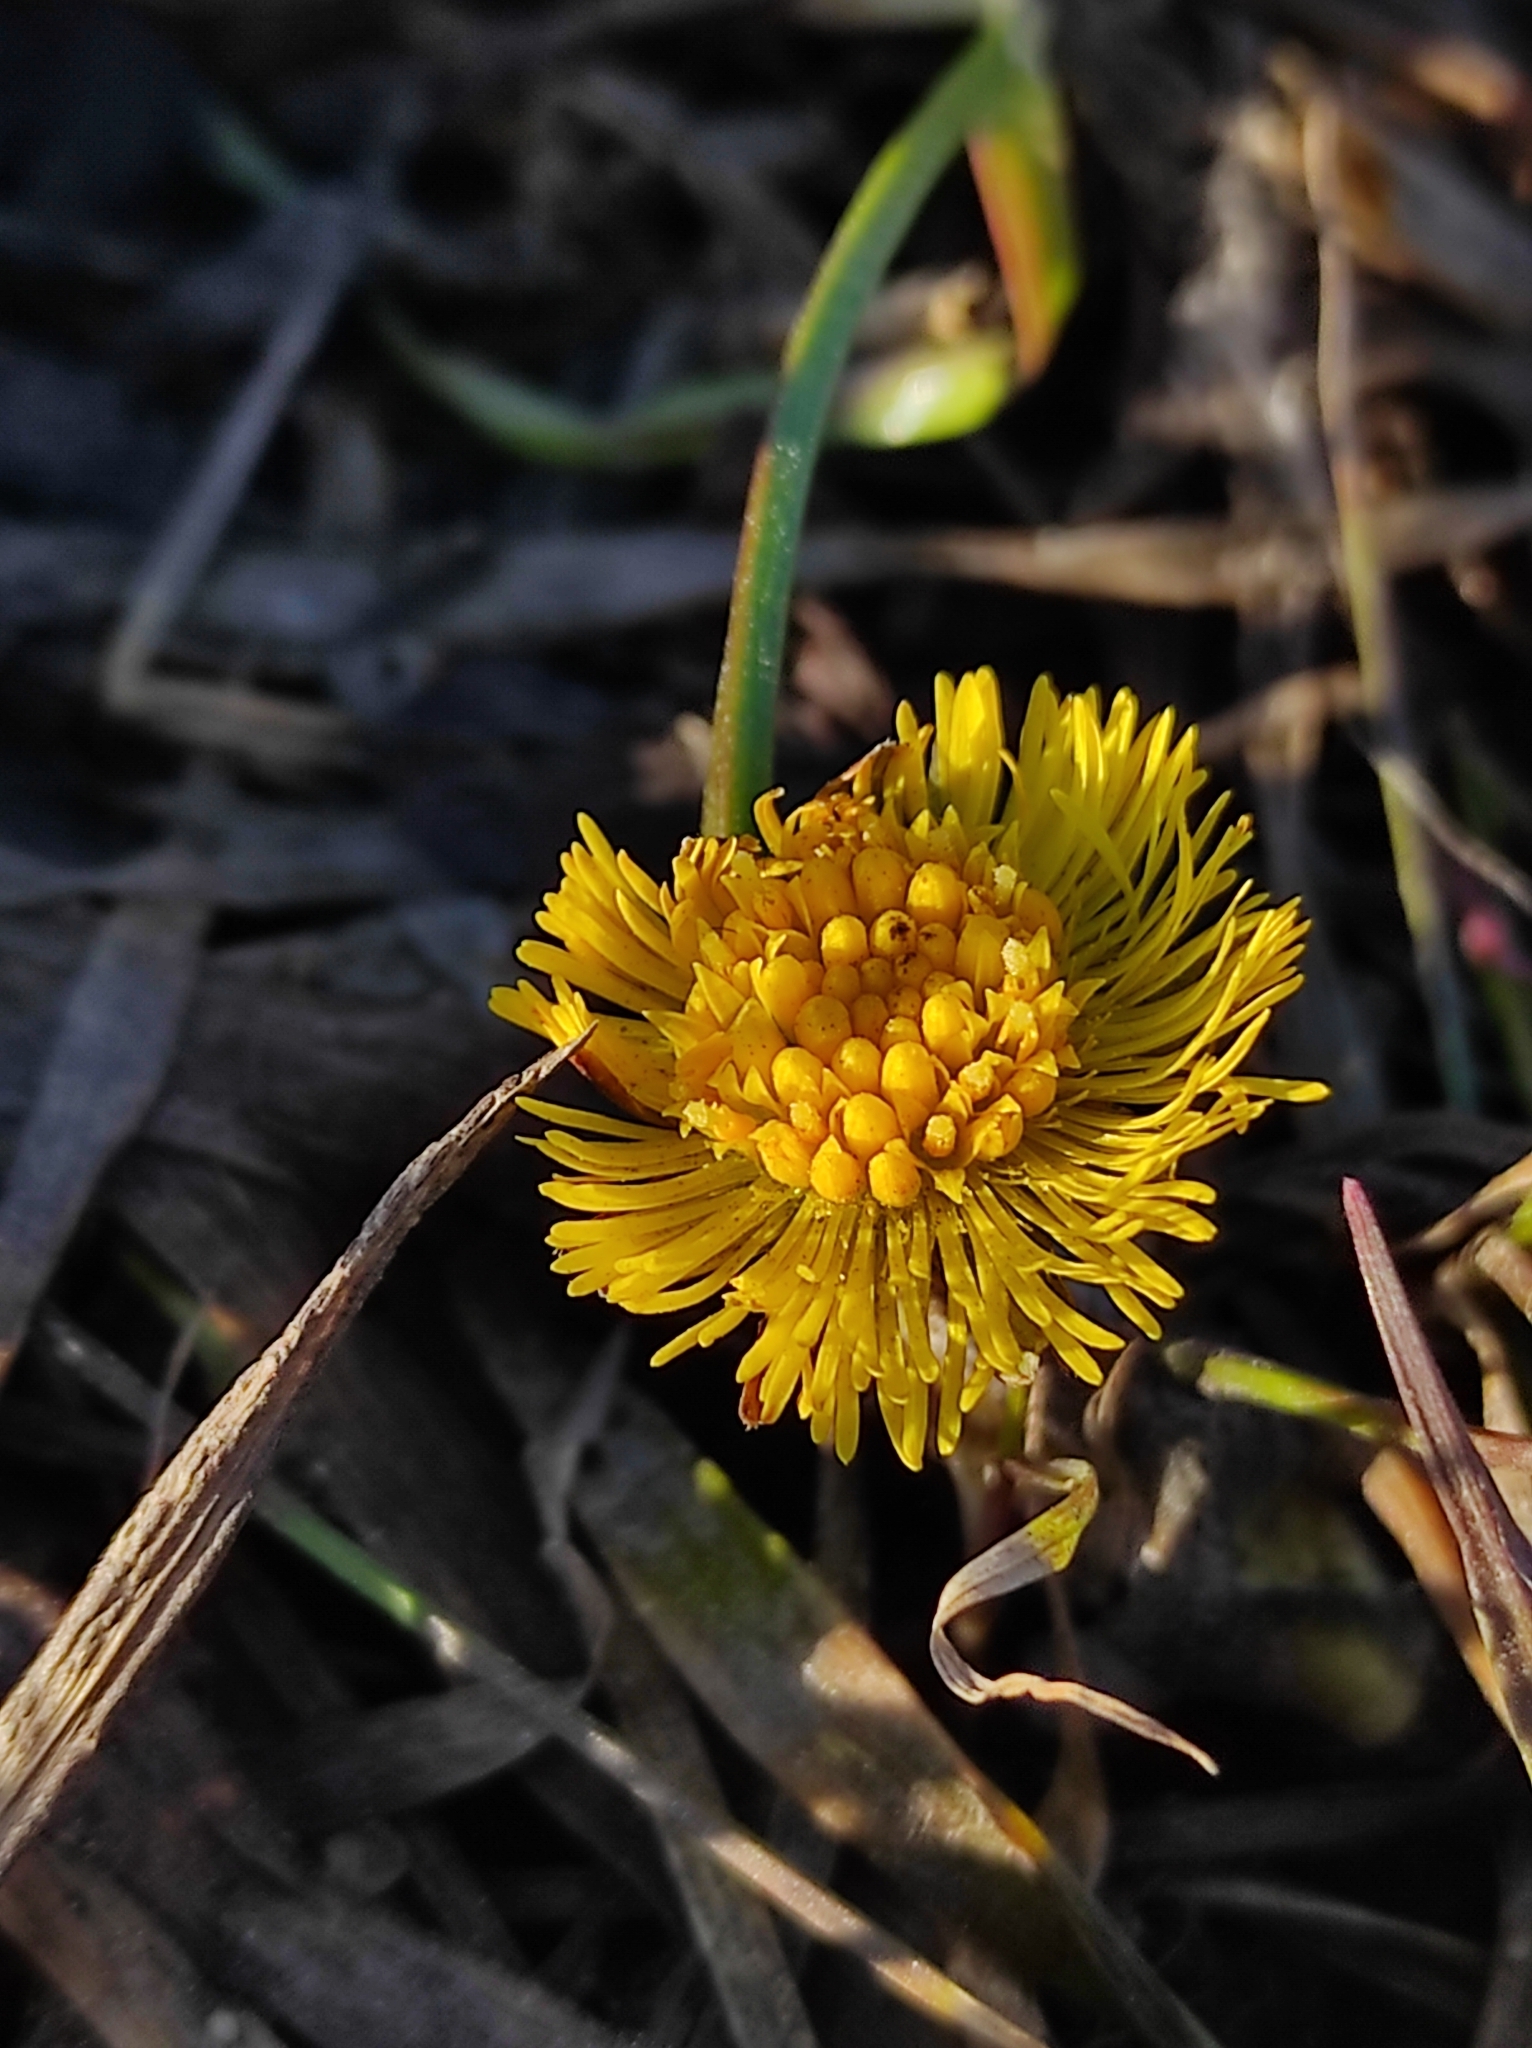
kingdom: Plantae
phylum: Tracheophyta
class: Magnoliopsida
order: Asterales
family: Asteraceae
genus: Tussilago
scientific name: Tussilago farfara
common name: Coltsfoot
